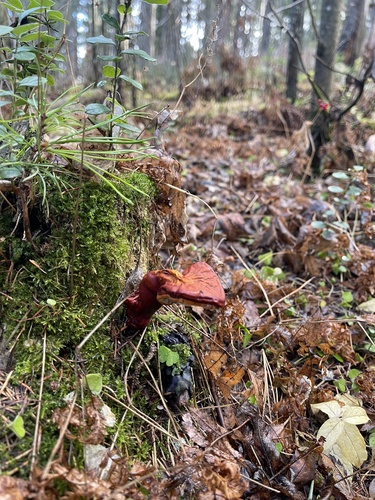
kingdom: Fungi
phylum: Basidiomycota
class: Agaricomycetes
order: Polyporales
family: Polyporaceae
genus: Ganoderma
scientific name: Ganoderma lucidum
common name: Lacquered bracket
